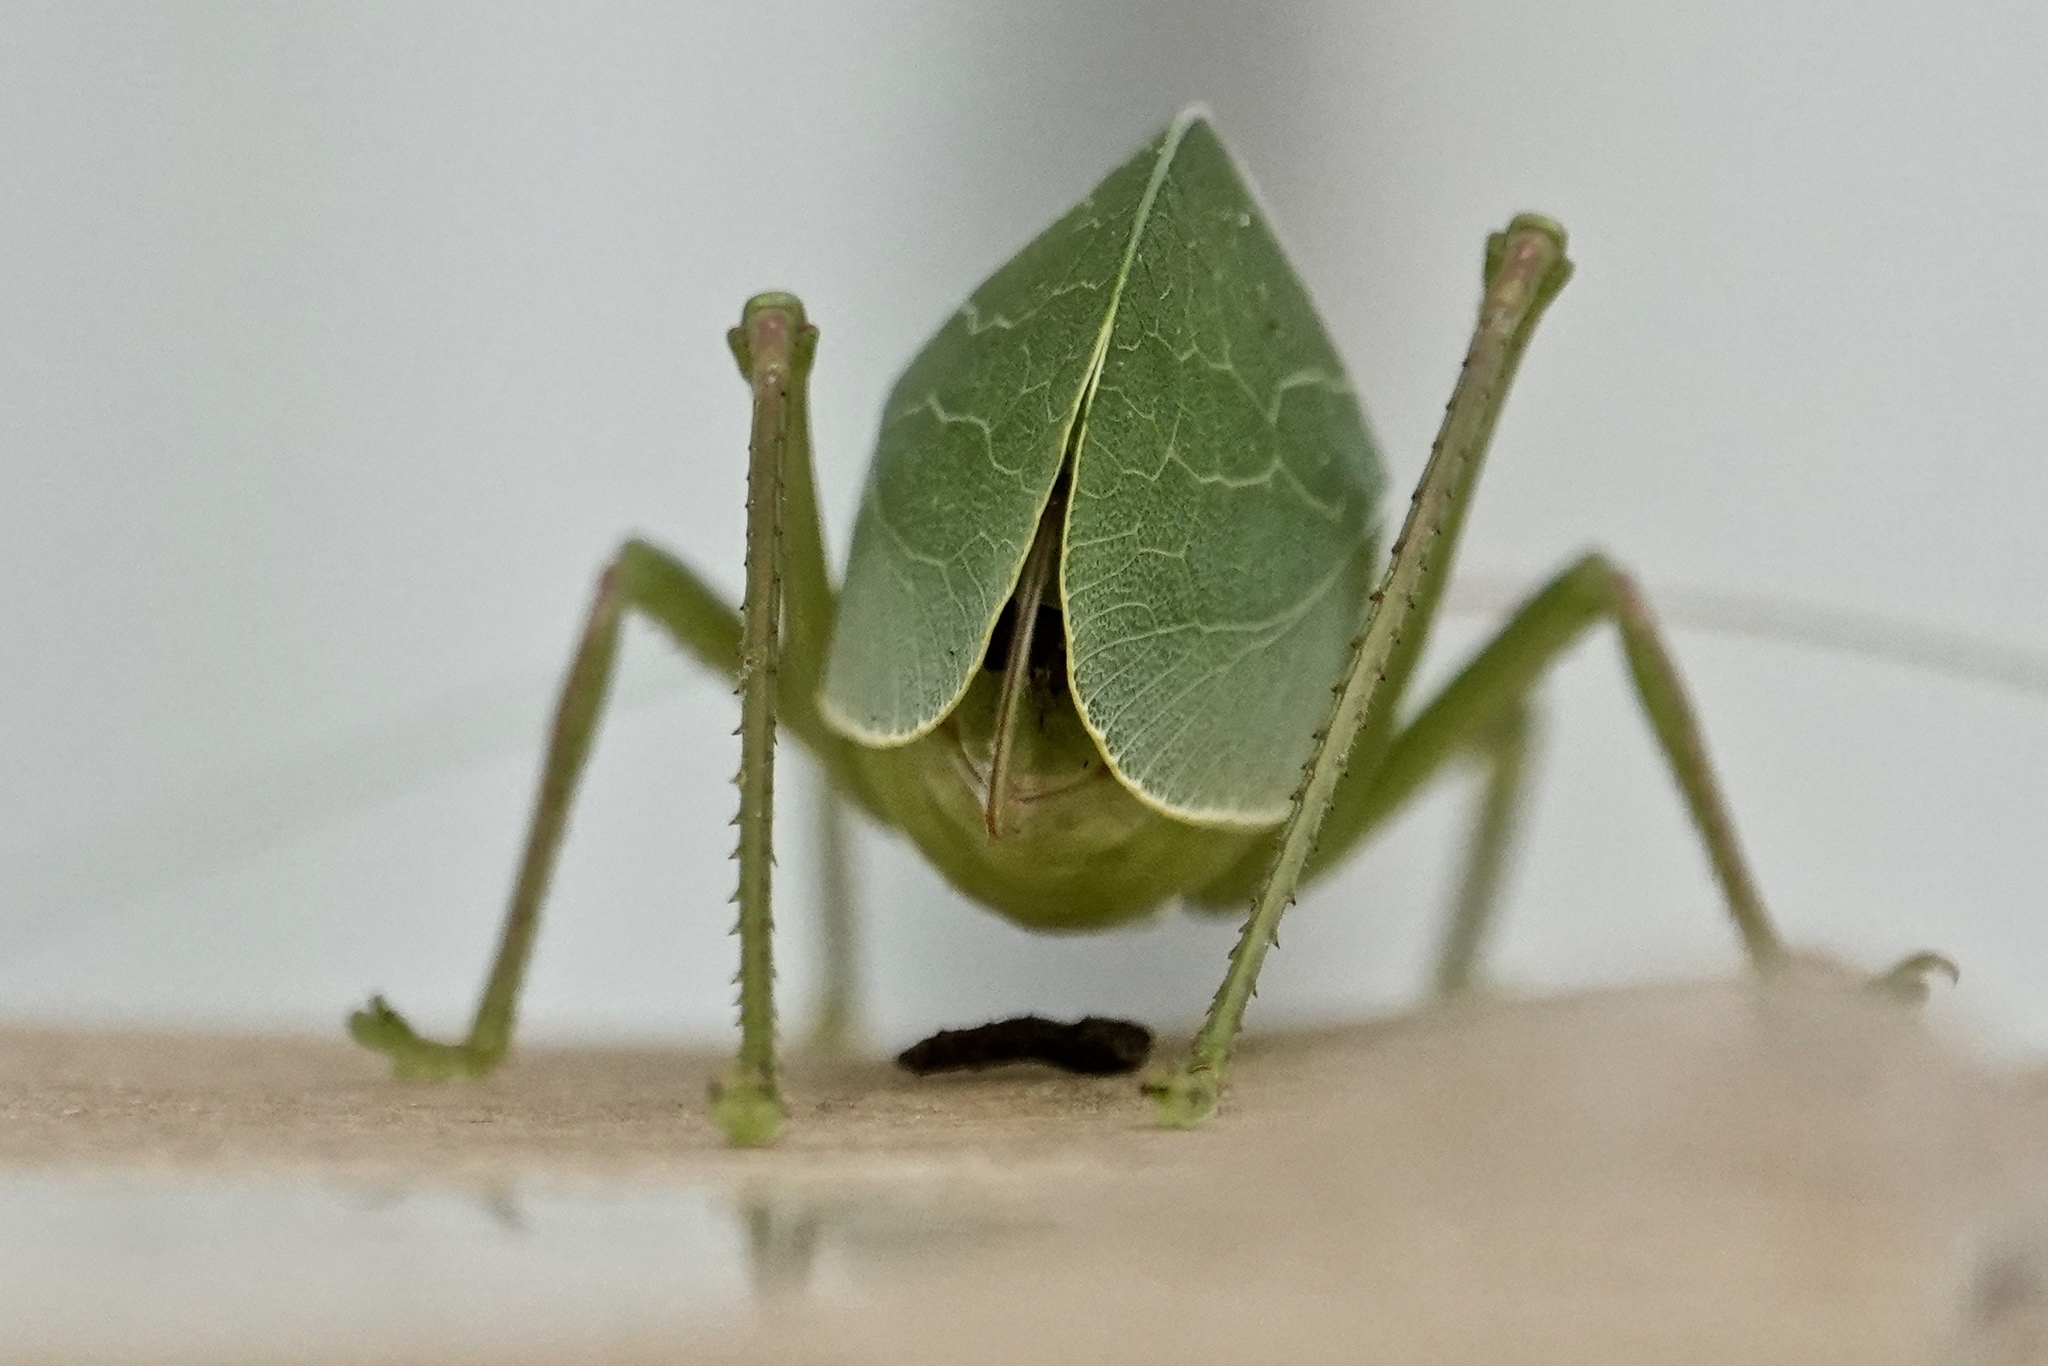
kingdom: Animalia
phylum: Arthropoda
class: Insecta
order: Orthoptera
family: Tettigoniidae
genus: Pterophylla
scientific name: Pterophylla camellifolia
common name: Common true katydid
